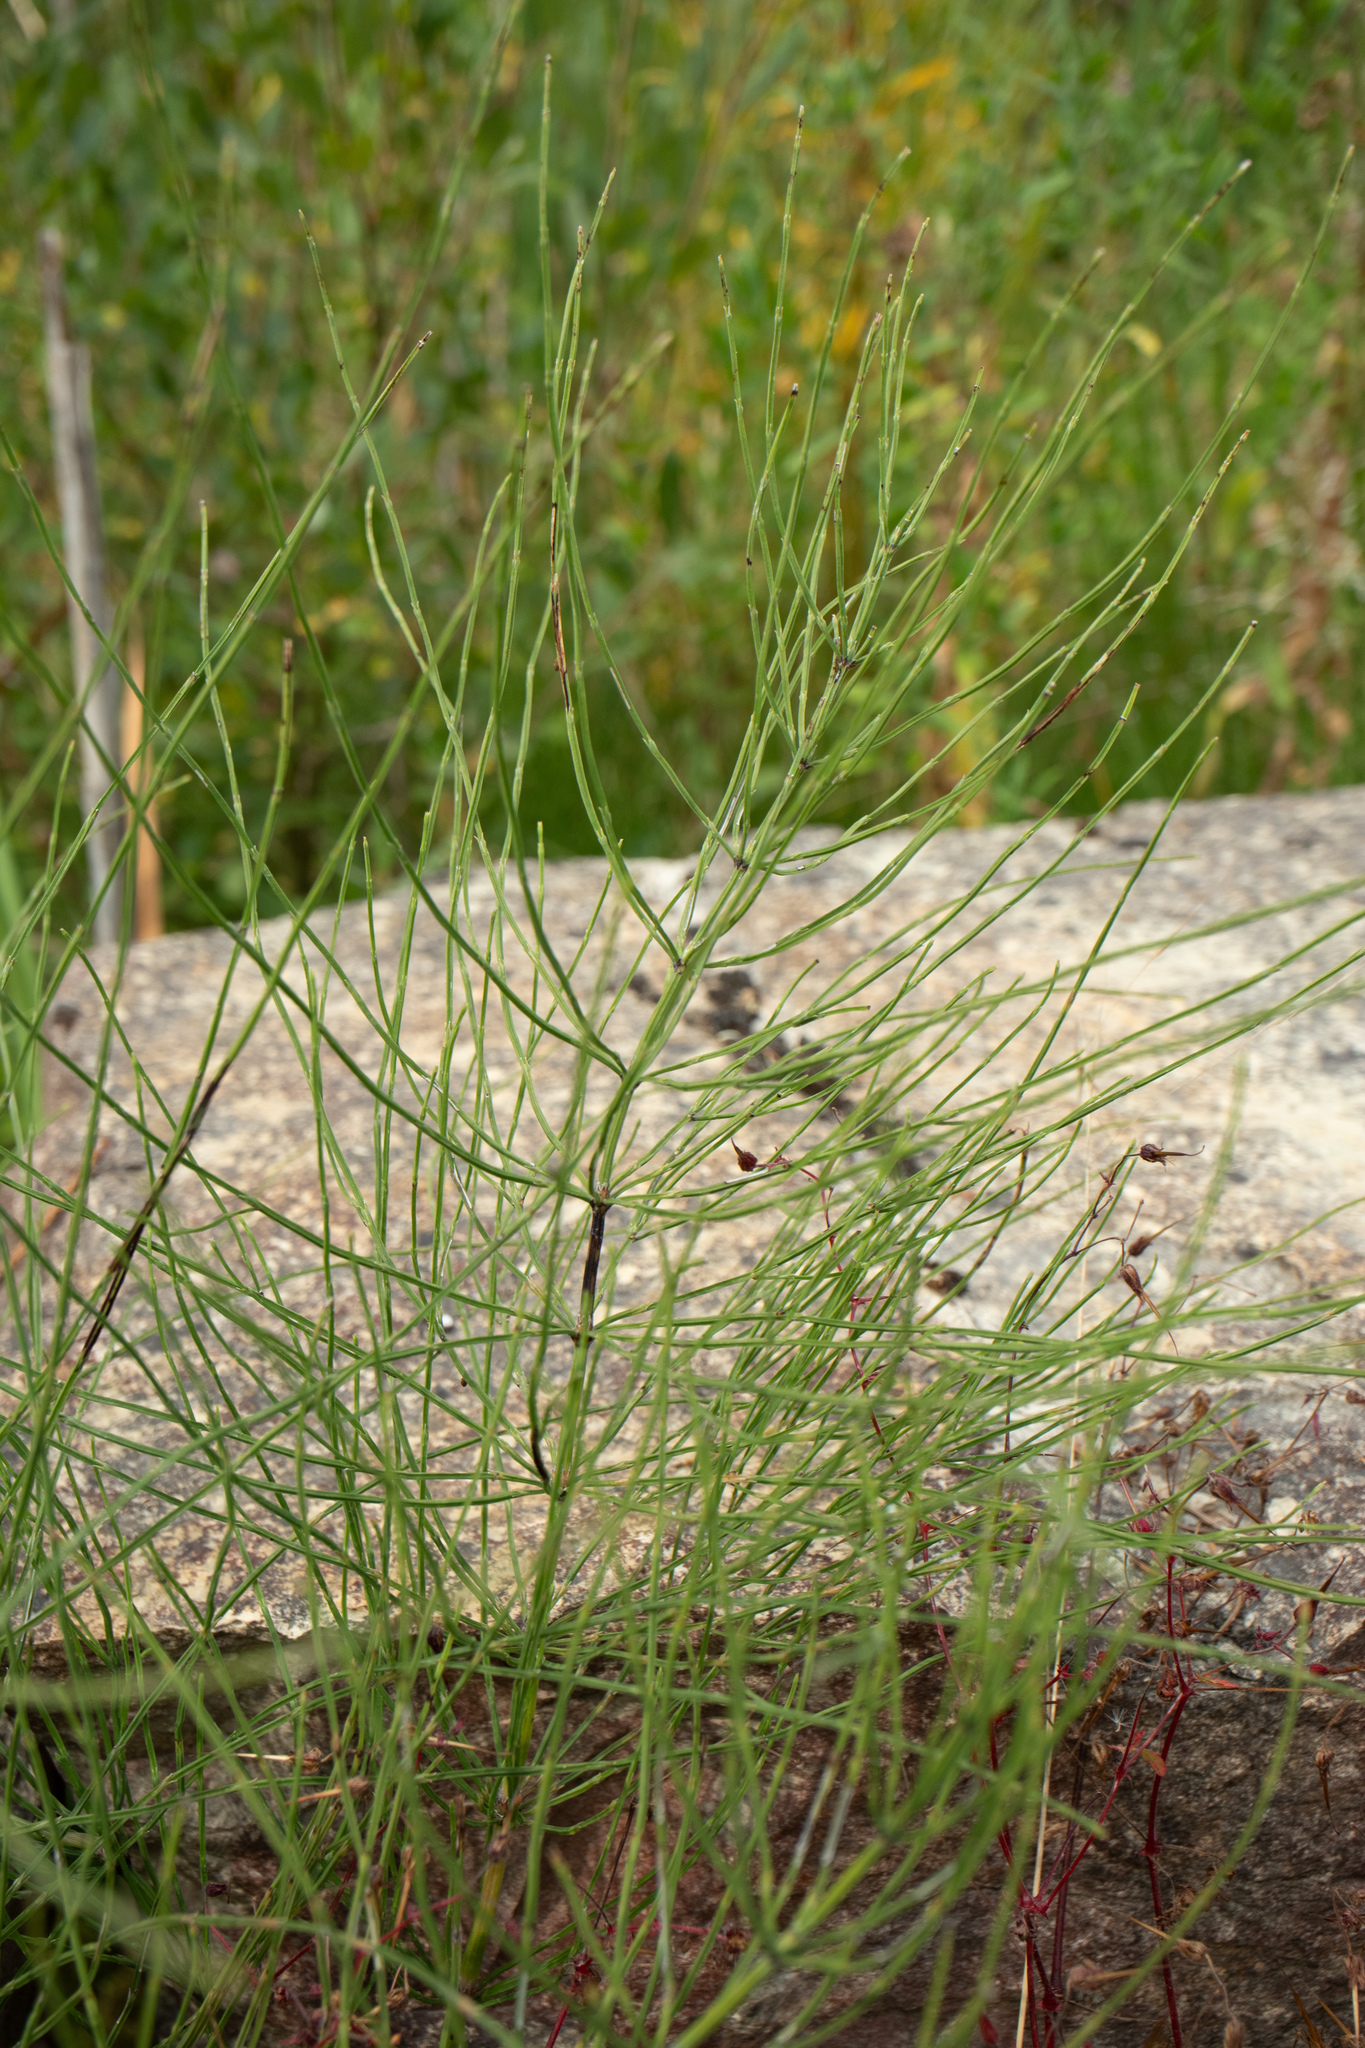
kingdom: Plantae
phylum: Tracheophyta
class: Polypodiopsida
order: Equisetales
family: Equisetaceae
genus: Equisetum
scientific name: Equisetum arvense
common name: Field horsetail
